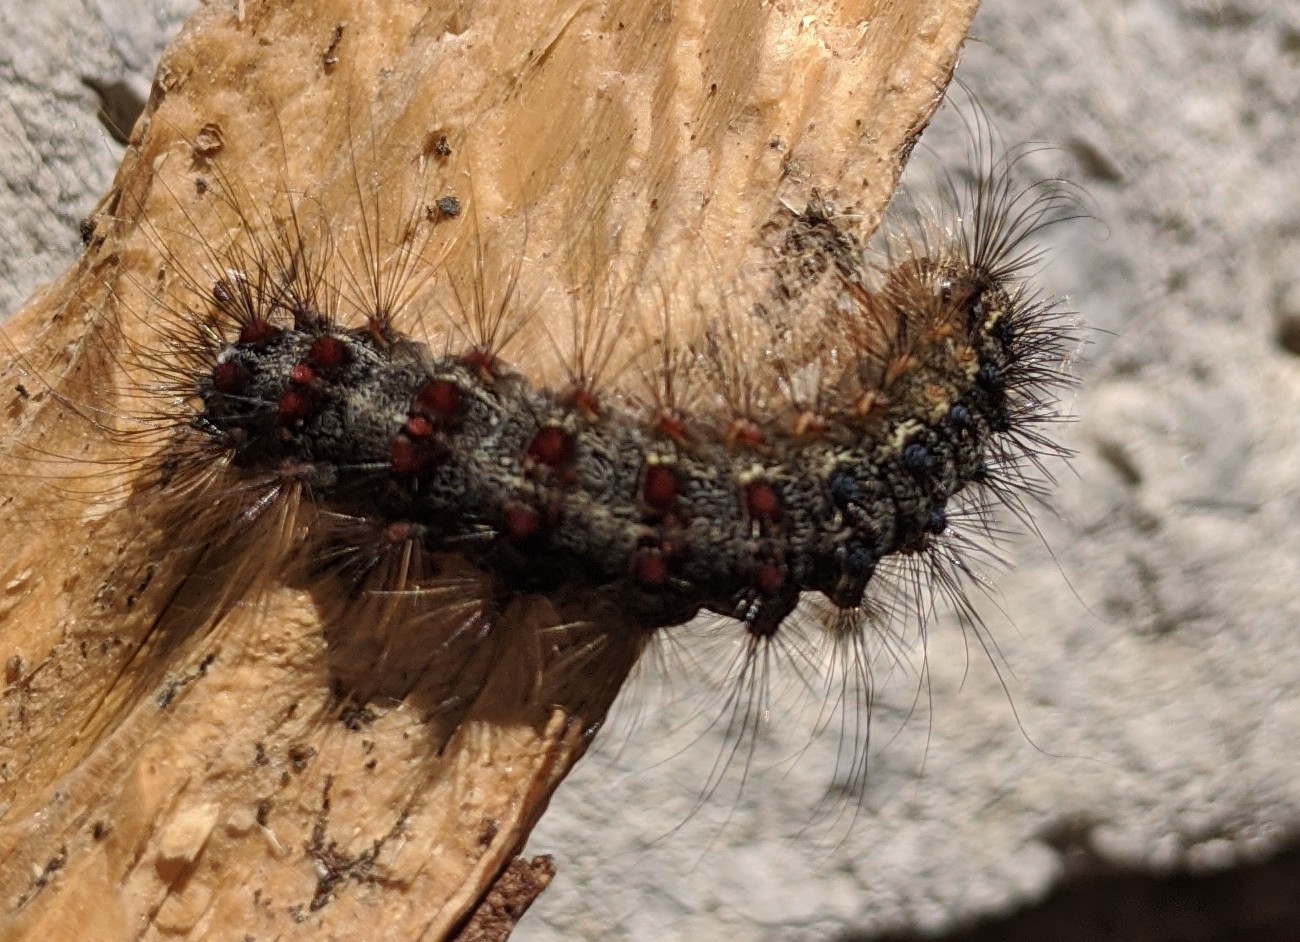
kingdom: Animalia
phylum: Arthropoda
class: Insecta
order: Lepidoptera
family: Erebidae
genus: Lymantria
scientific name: Lymantria dispar
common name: Gypsy moth
